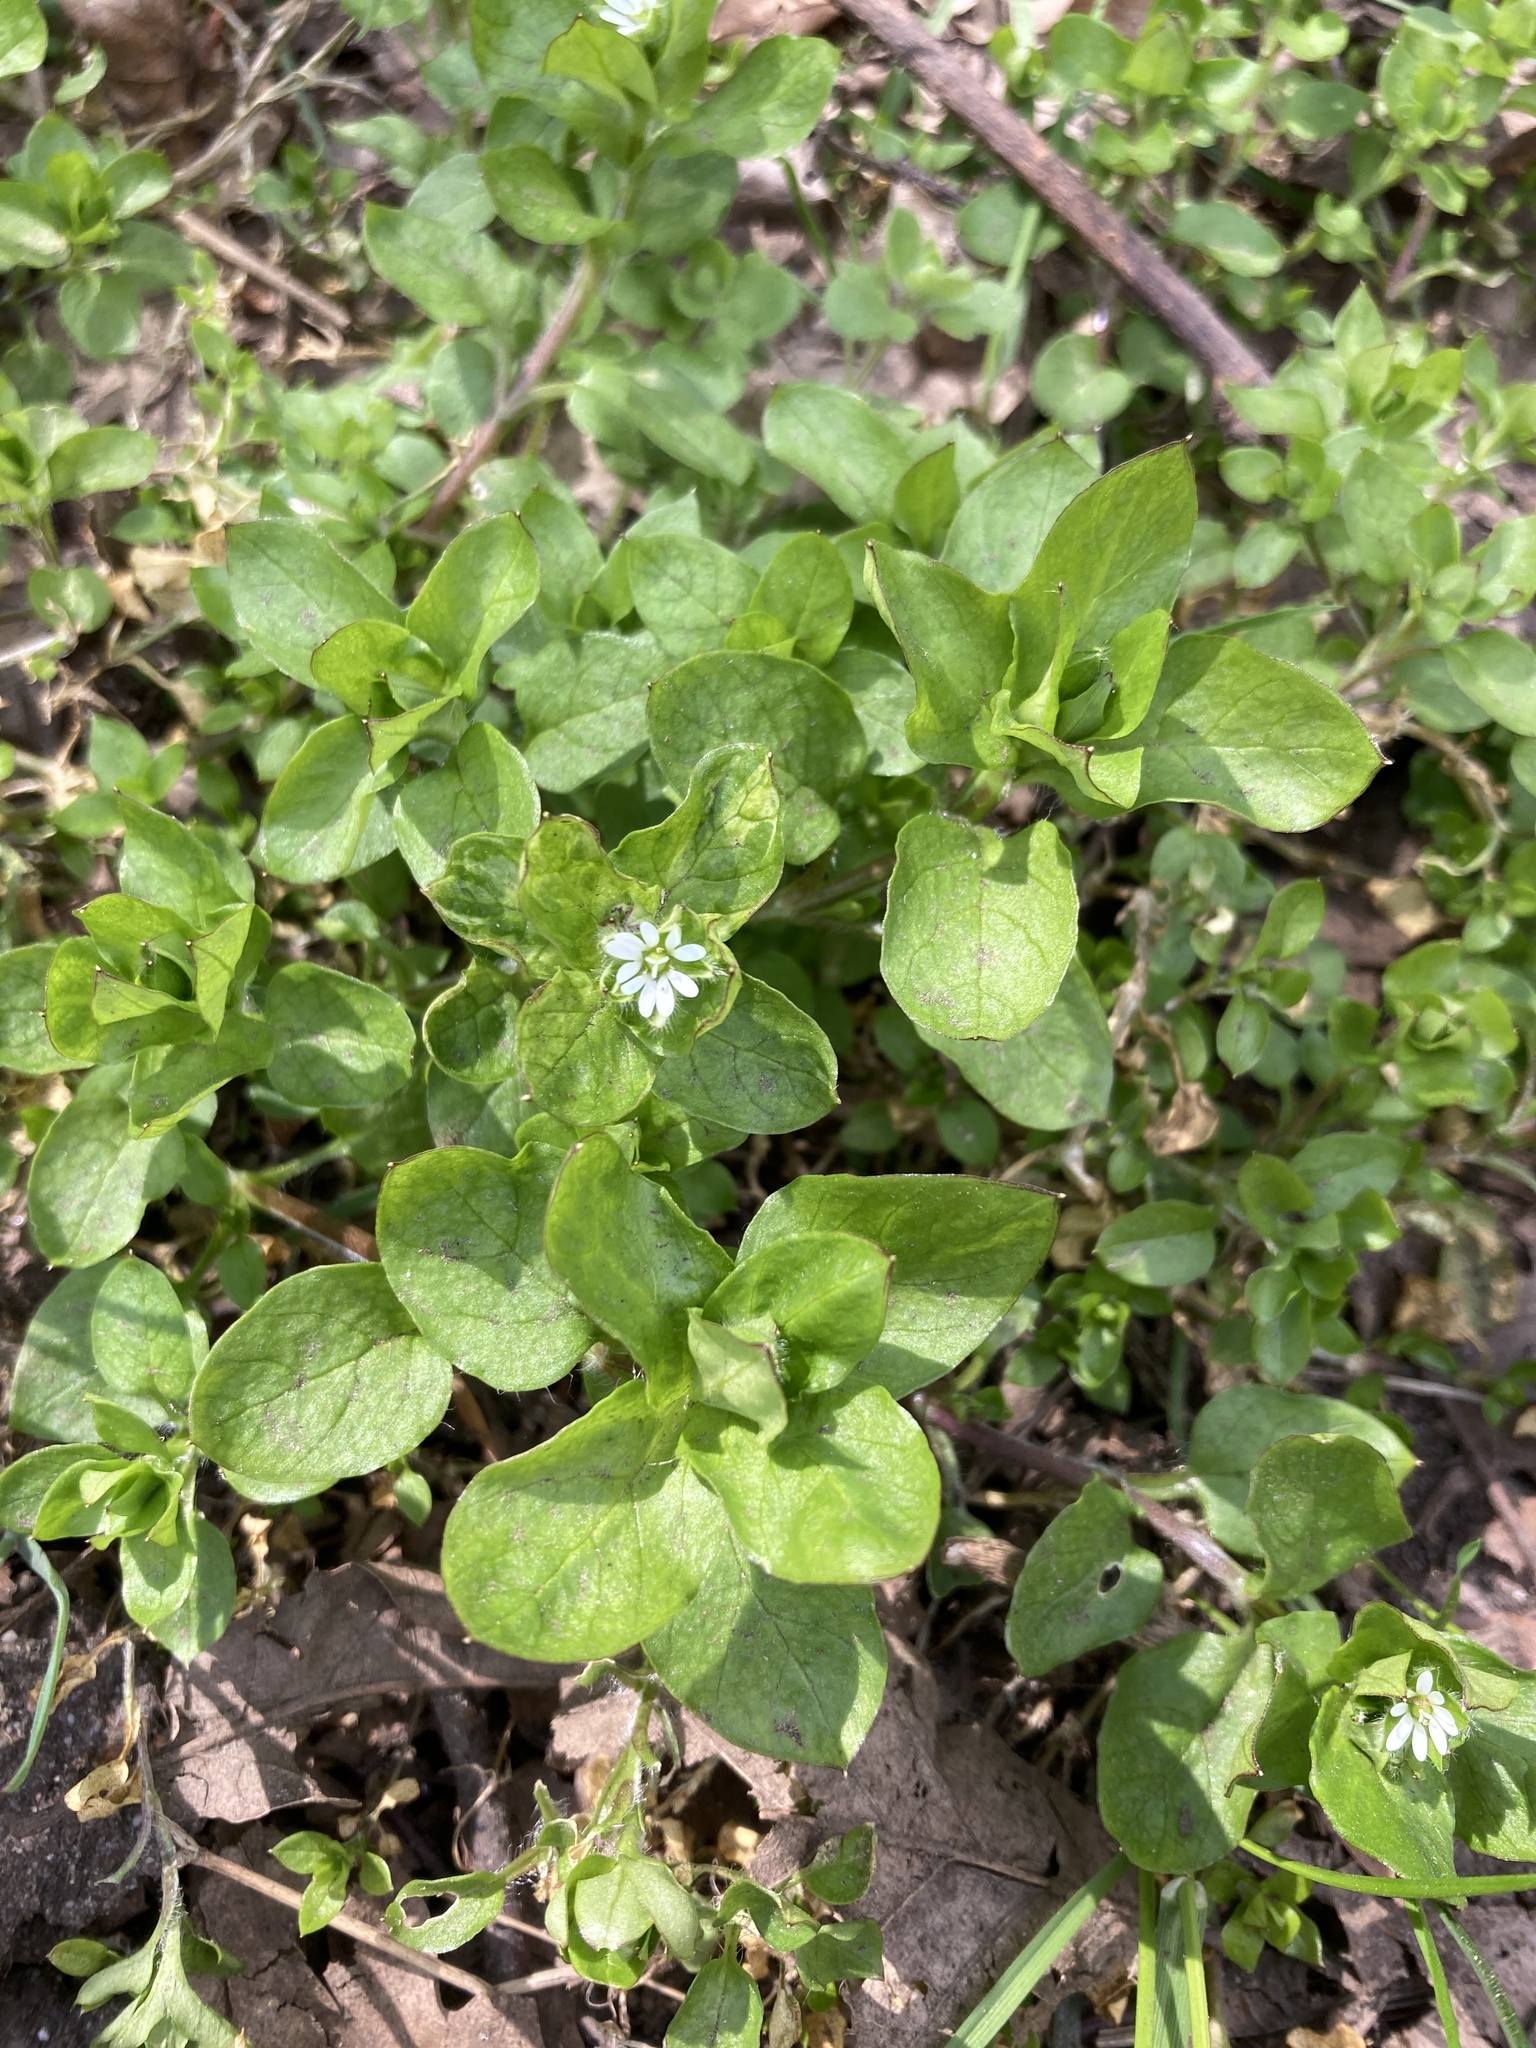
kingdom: Plantae
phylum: Tracheophyta
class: Magnoliopsida
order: Caryophyllales
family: Caryophyllaceae
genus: Stellaria
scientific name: Stellaria media
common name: Common chickweed
